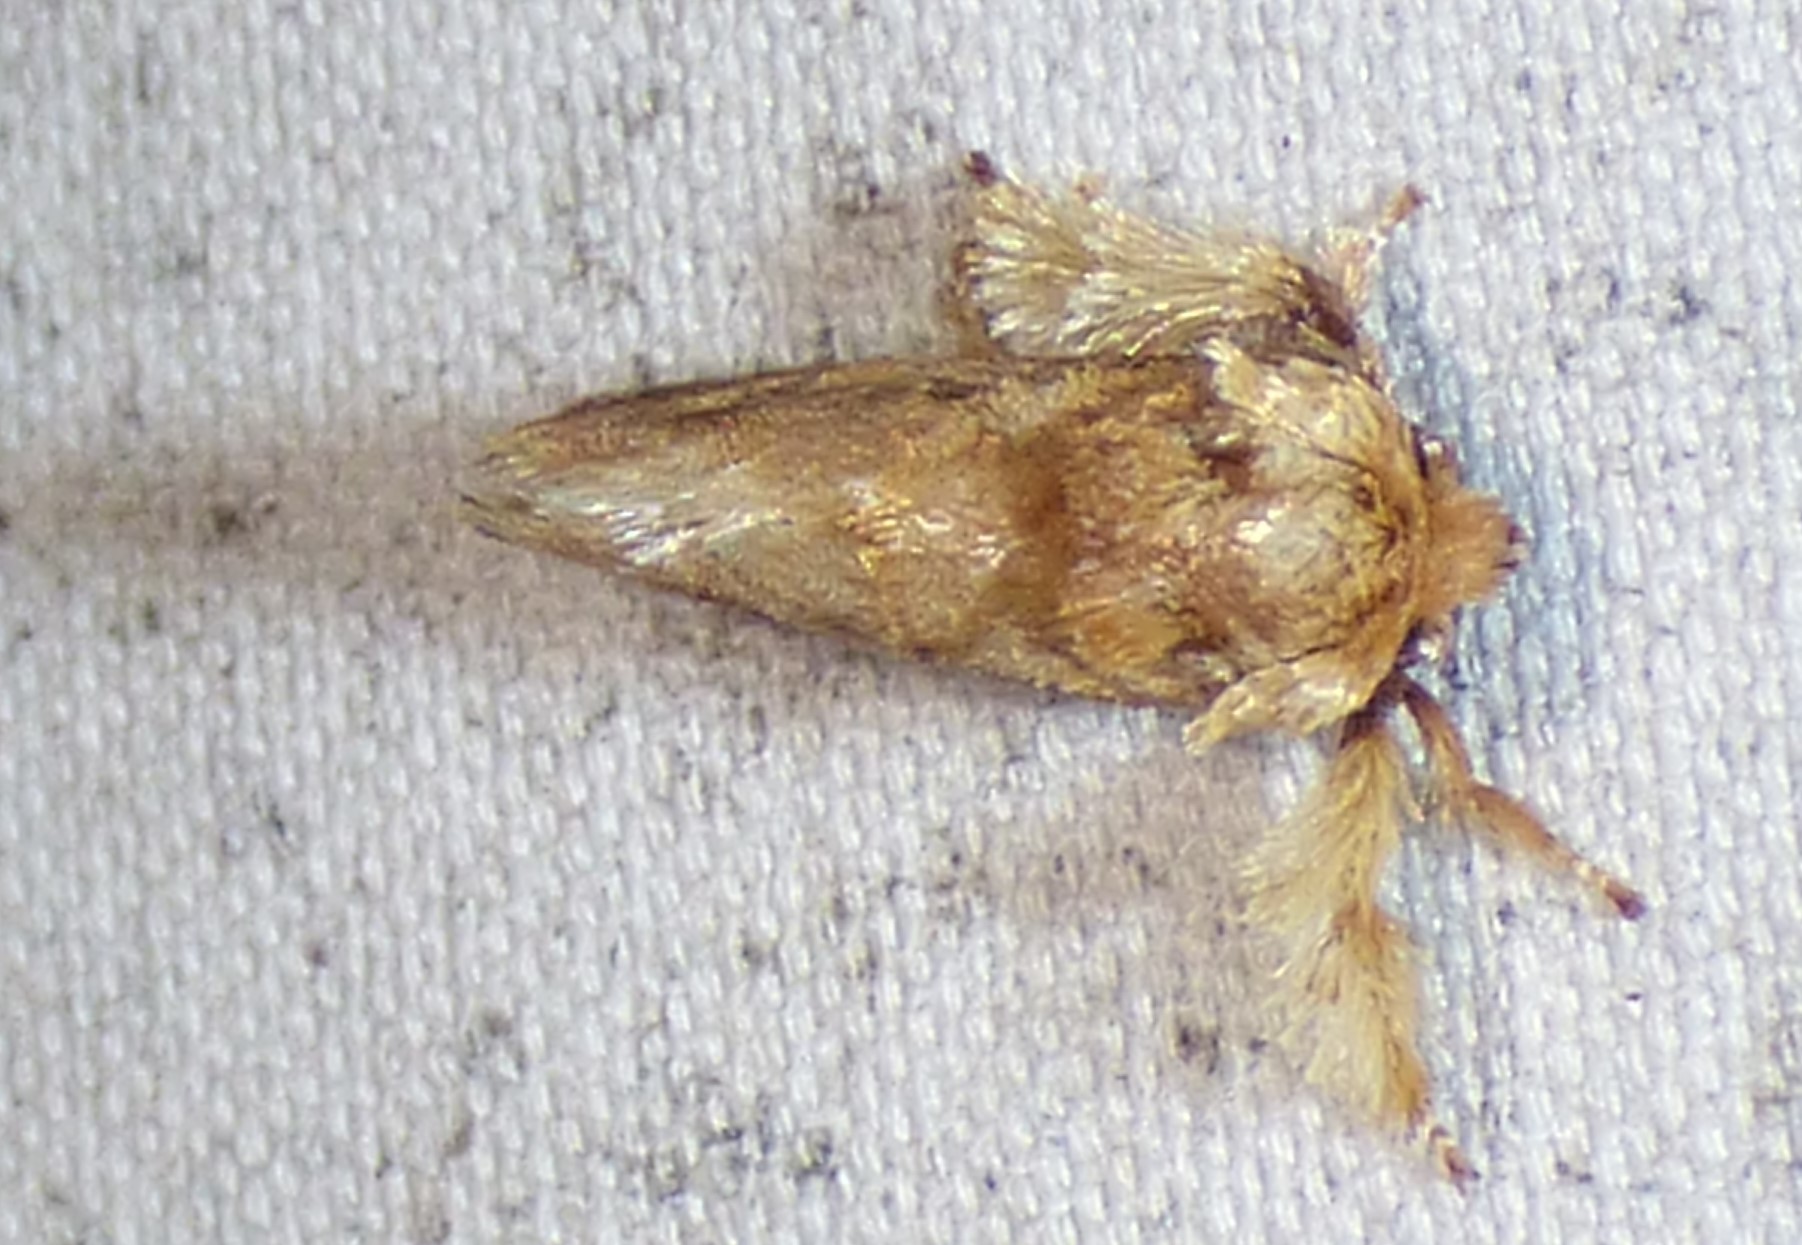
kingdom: Animalia
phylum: Arthropoda
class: Insecta
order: Lepidoptera
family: Limacodidae
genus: Isochaetes
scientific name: Isochaetes beutenmuelleri
